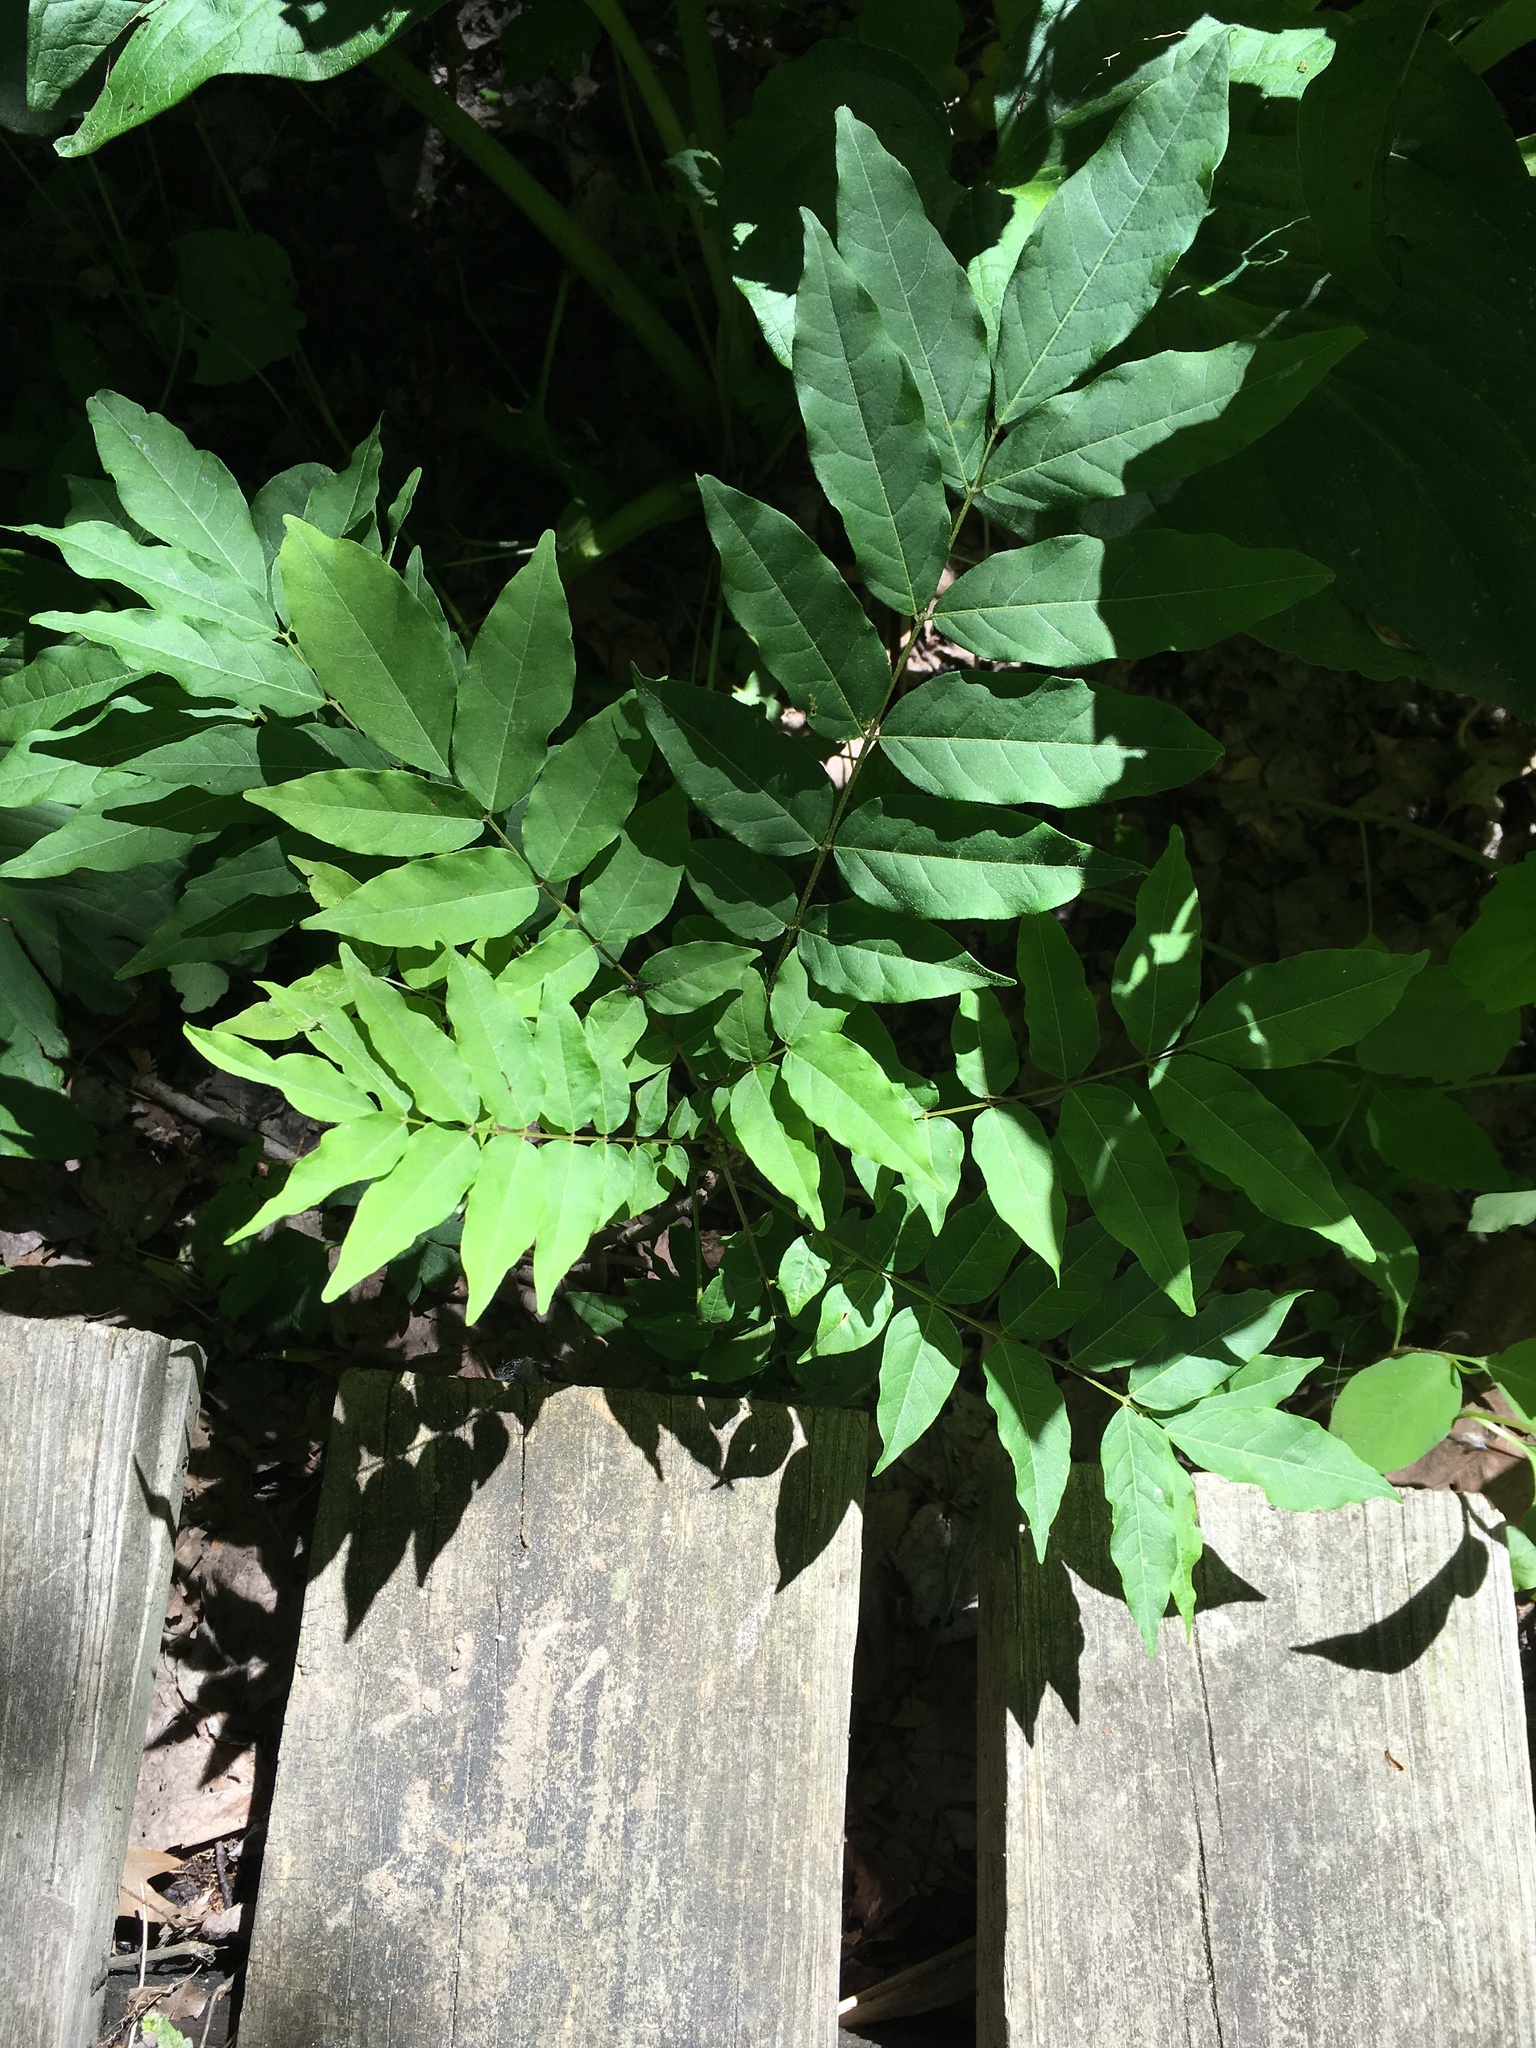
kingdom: Plantae
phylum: Tracheophyta
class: Magnoliopsida
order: Fabales
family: Fabaceae
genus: Wisteria
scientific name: Wisteria sinensis
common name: Chinese wisteria
